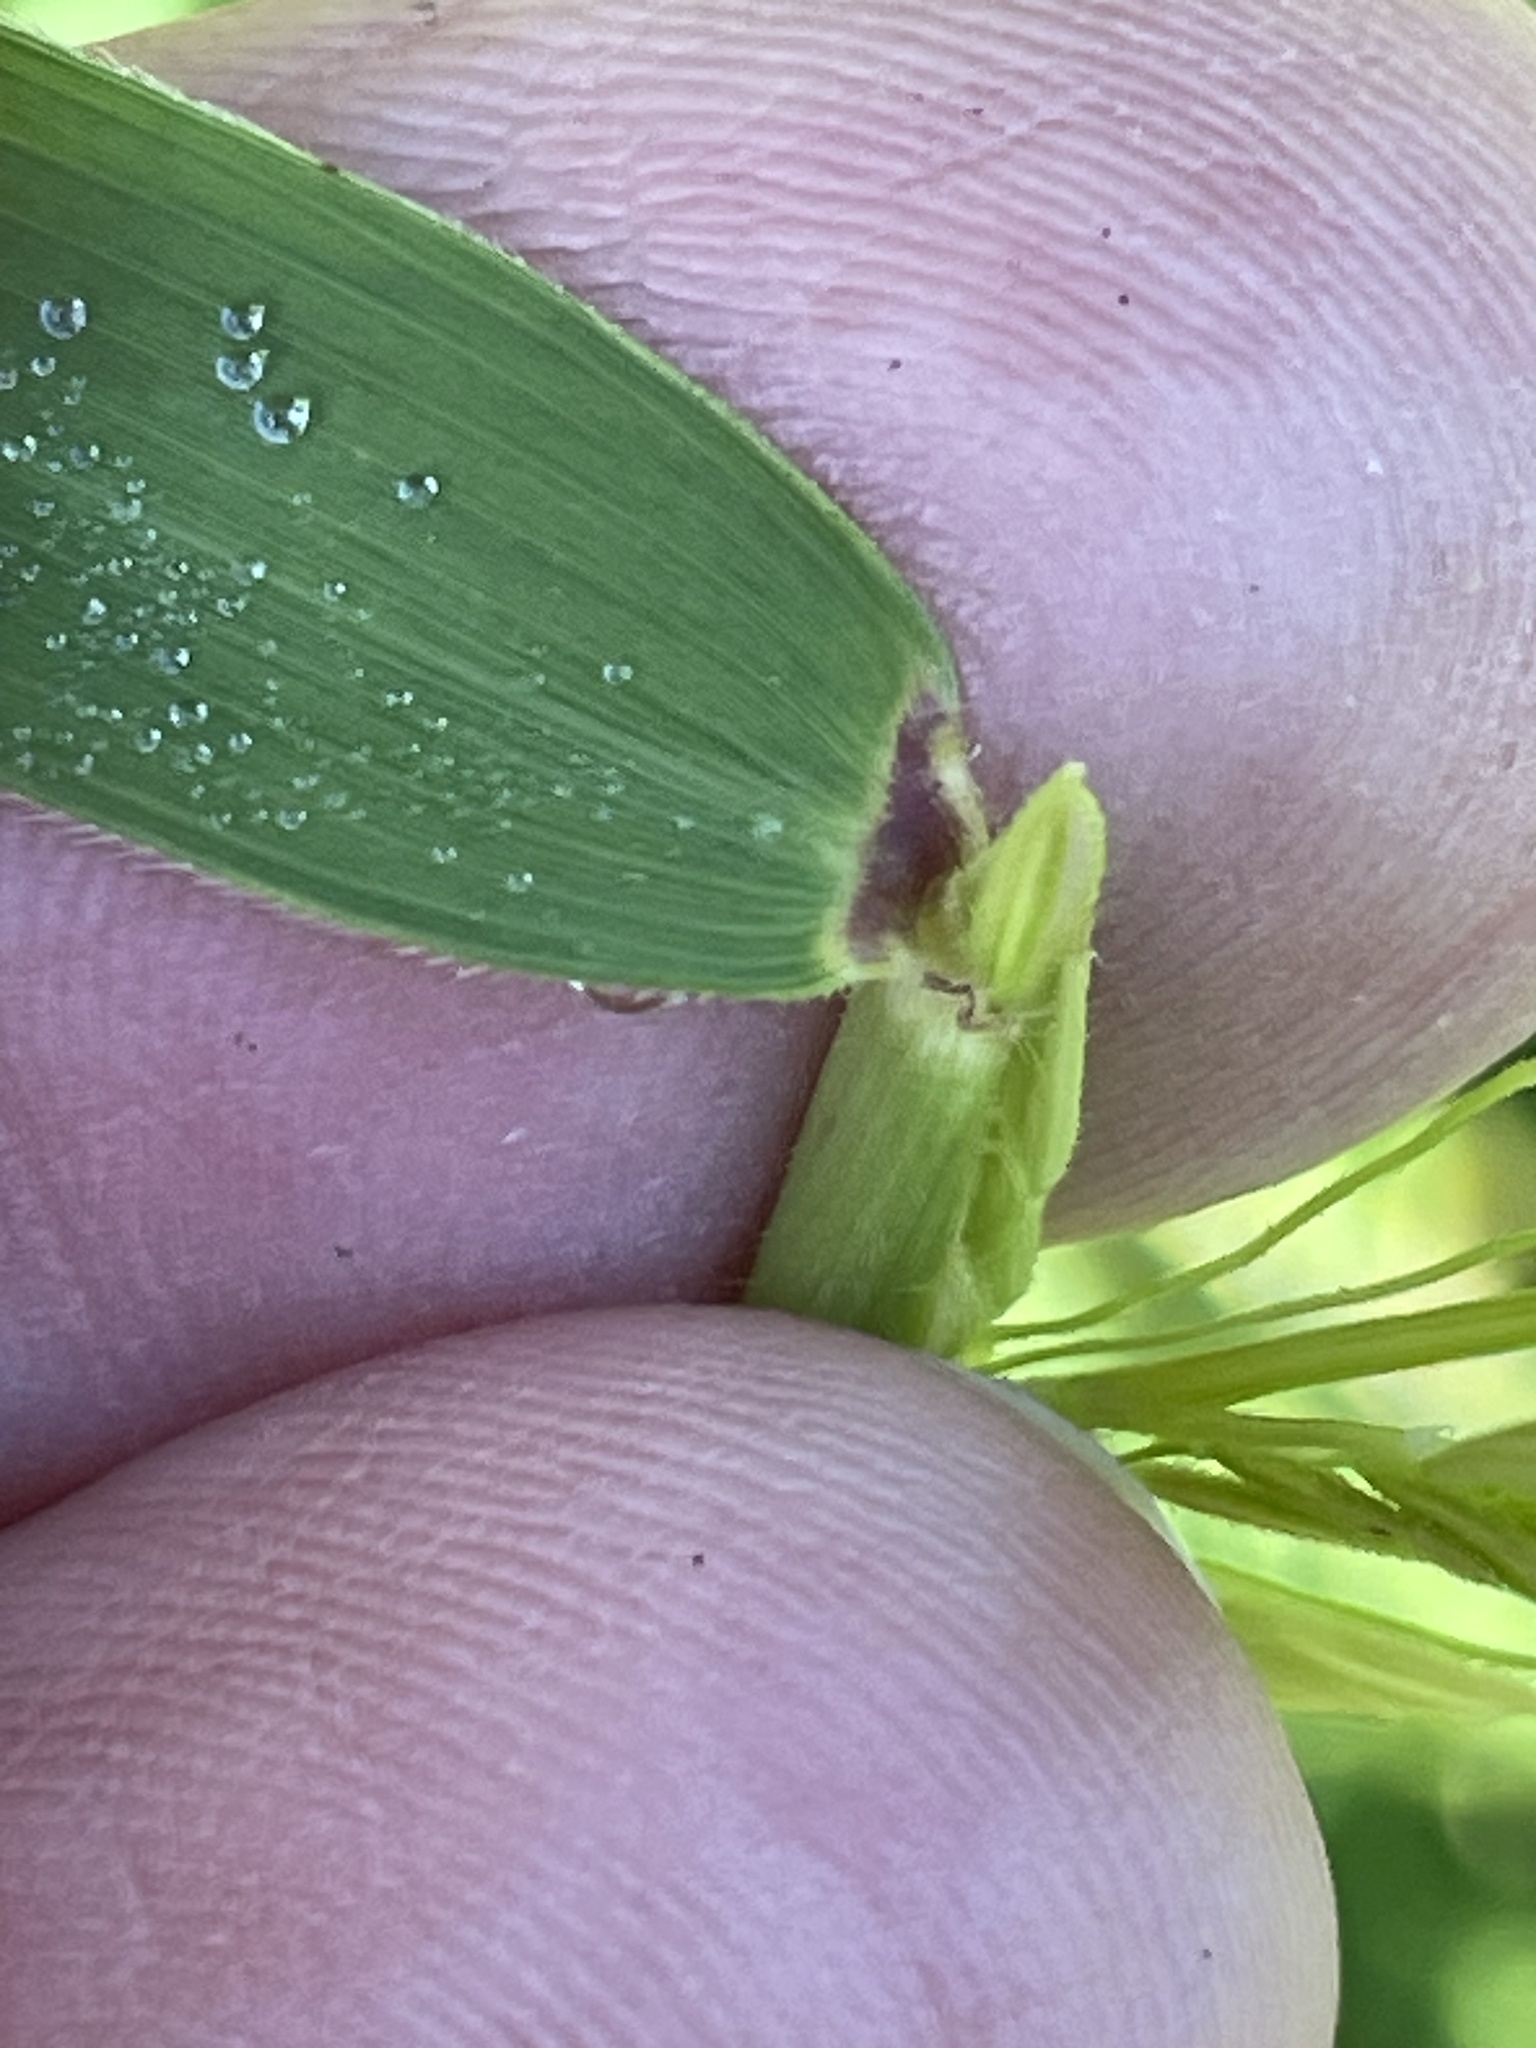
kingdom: Plantae
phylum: Tracheophyta
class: Liliopsida
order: Poales
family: Poaceae
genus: Leersia
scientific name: Leersia oryzoides
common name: Cut-grass
